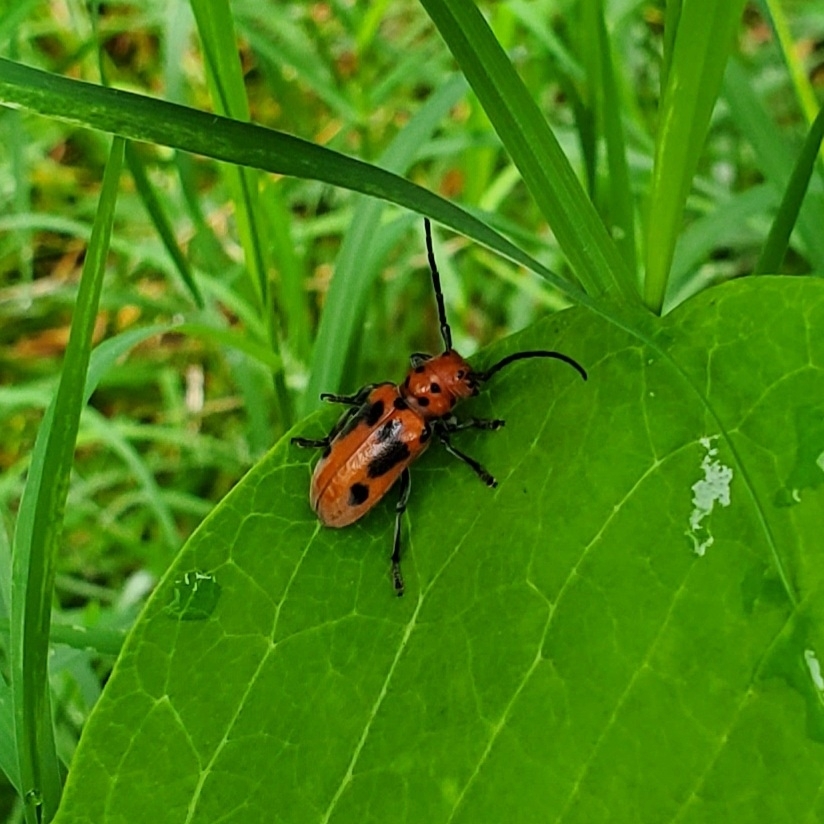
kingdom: Animalia
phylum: Arthropoda
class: Insecta
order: Coleoptera
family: Cerambycidae
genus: Tetraopes
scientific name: Tetraopes tetrophthalmus
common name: Red milkweed beetle
